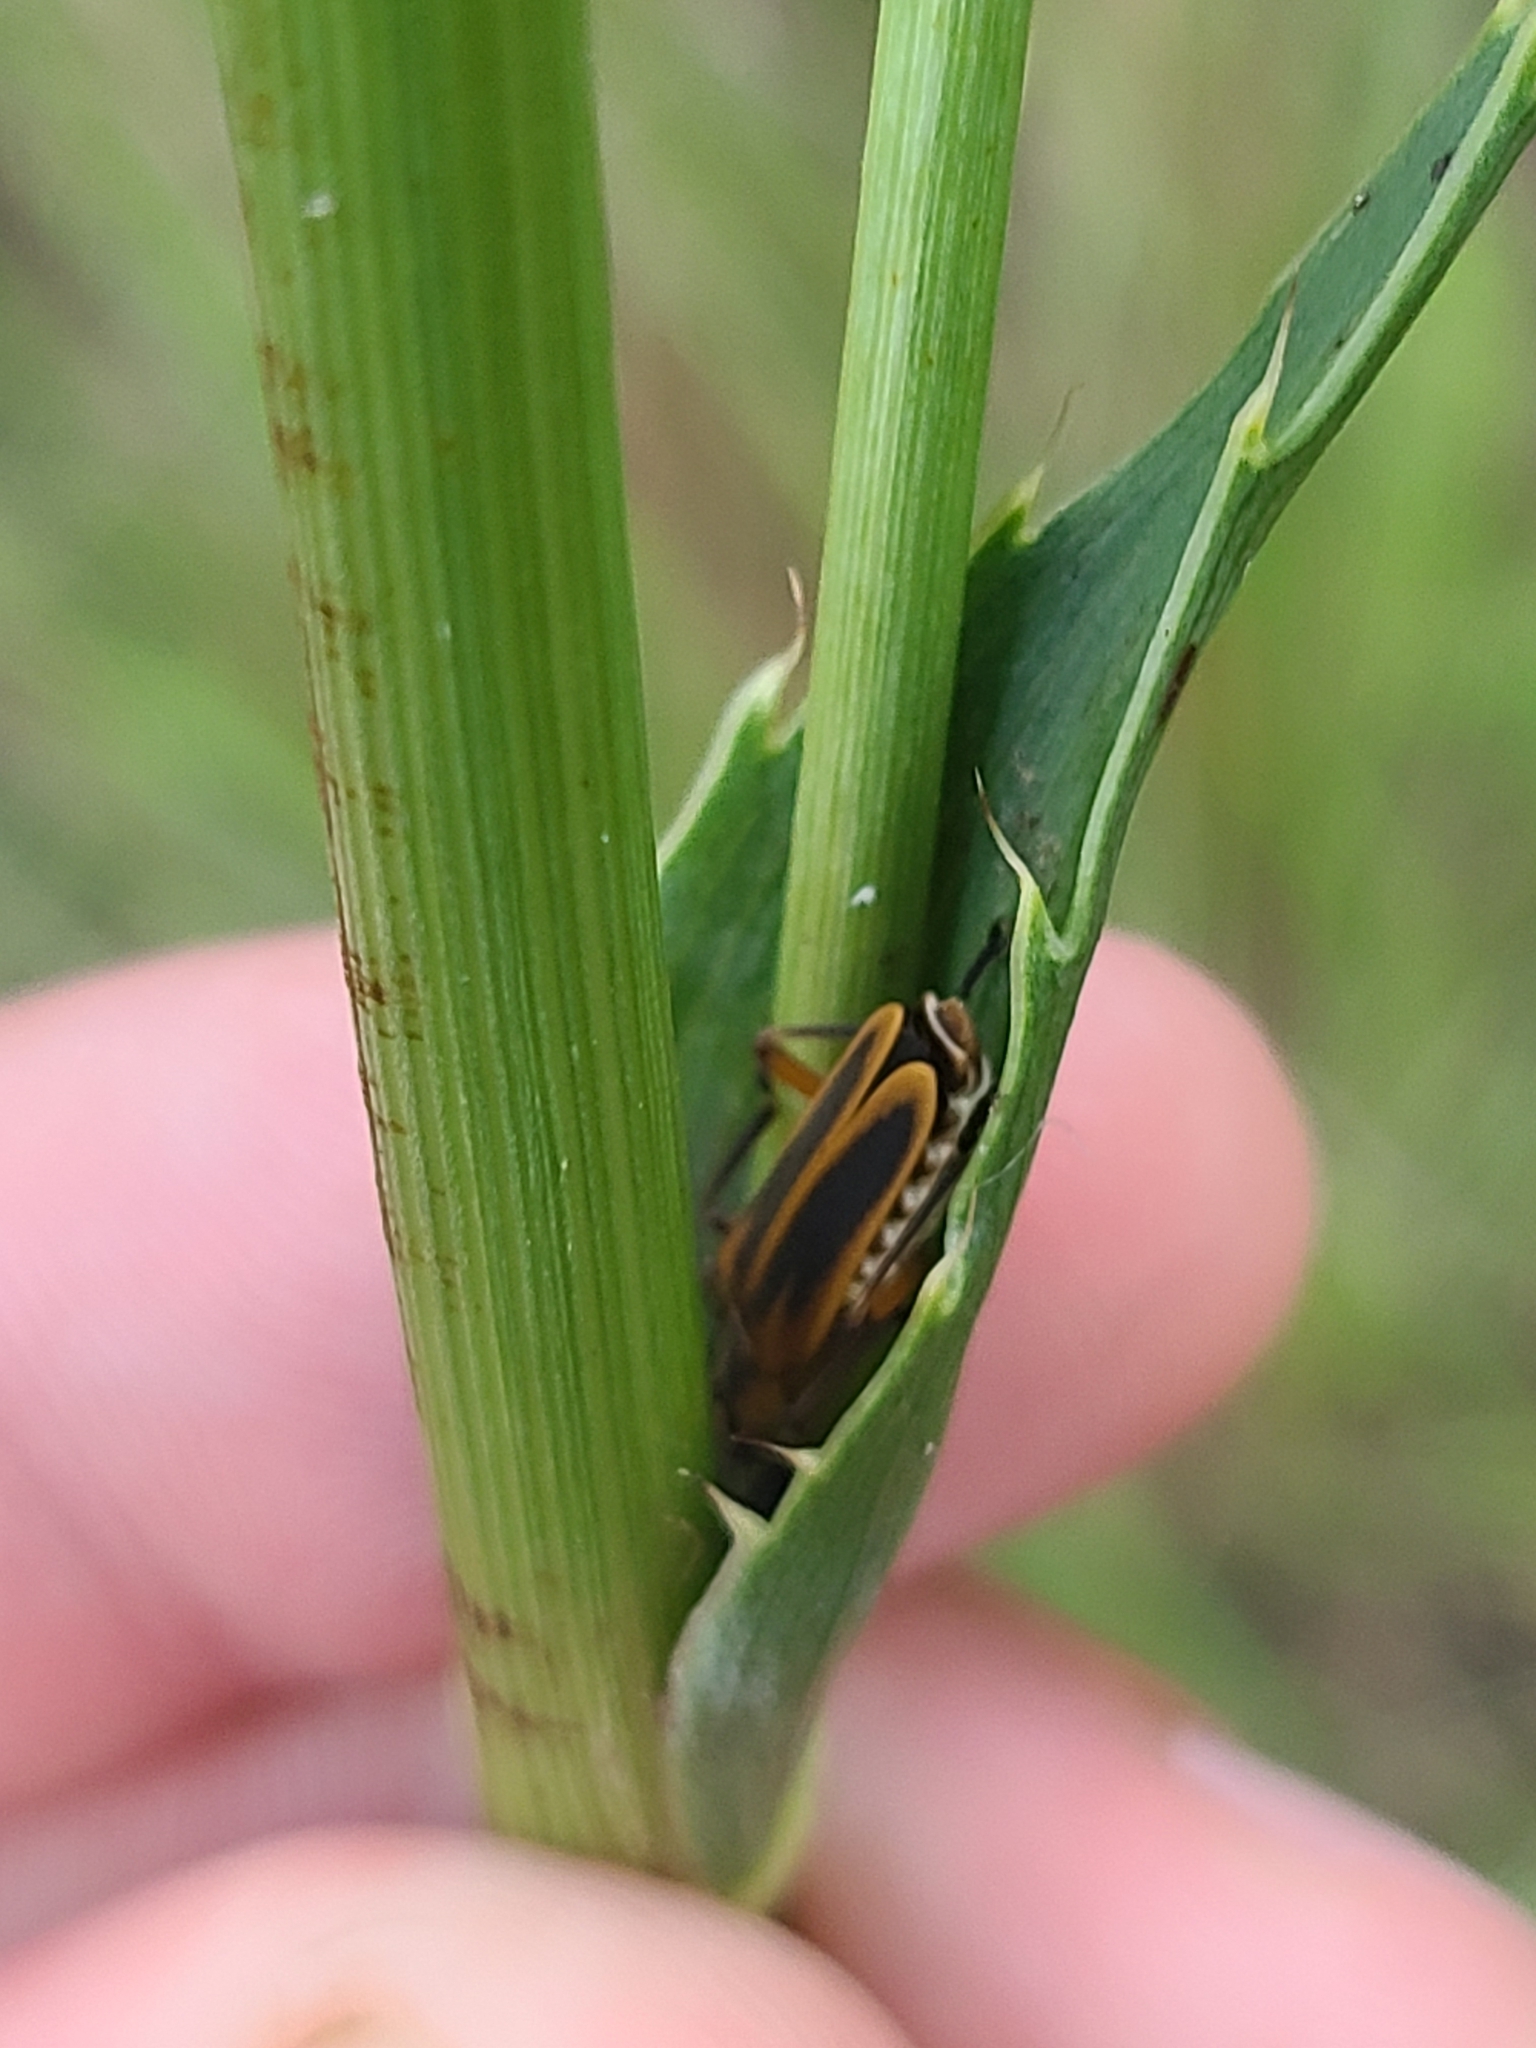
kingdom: Animalia
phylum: Arthropoda
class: Insecta
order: Coleoptera
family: Cantharidae
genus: Chauliognathus
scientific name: Chauliognathus marginatus
